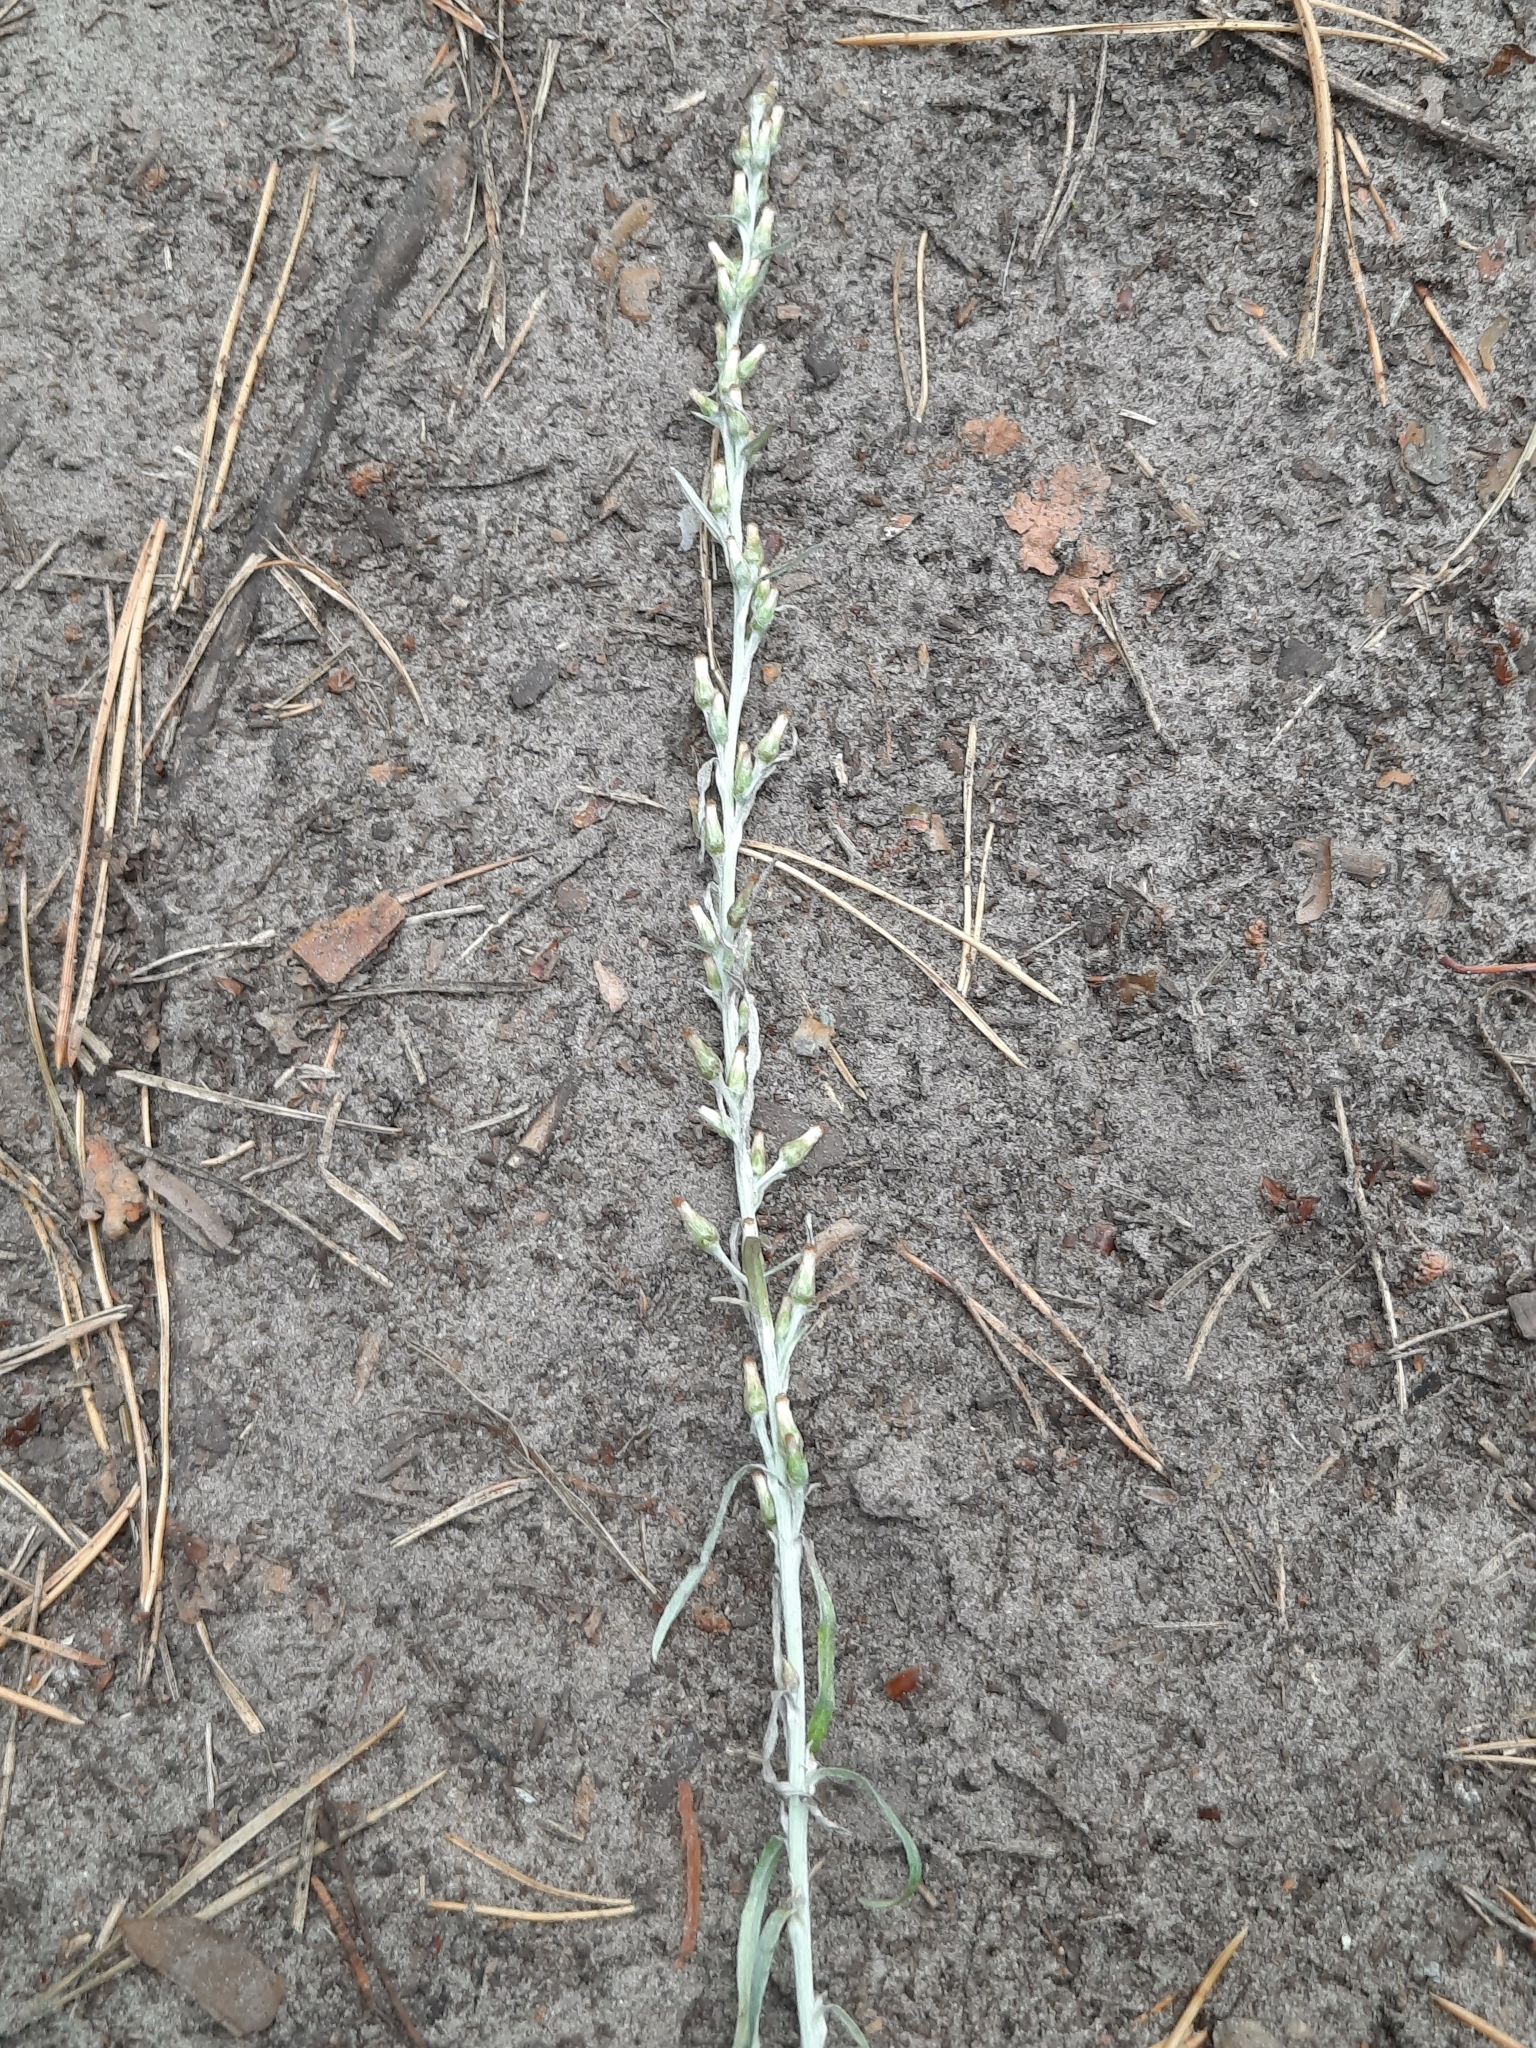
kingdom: Plantae
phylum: Tracheophyta
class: Magnoliopsida
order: Asterales
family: Asteraceae
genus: Omalotheca
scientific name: Omalotheca sylvatica
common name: Heath cudweed
